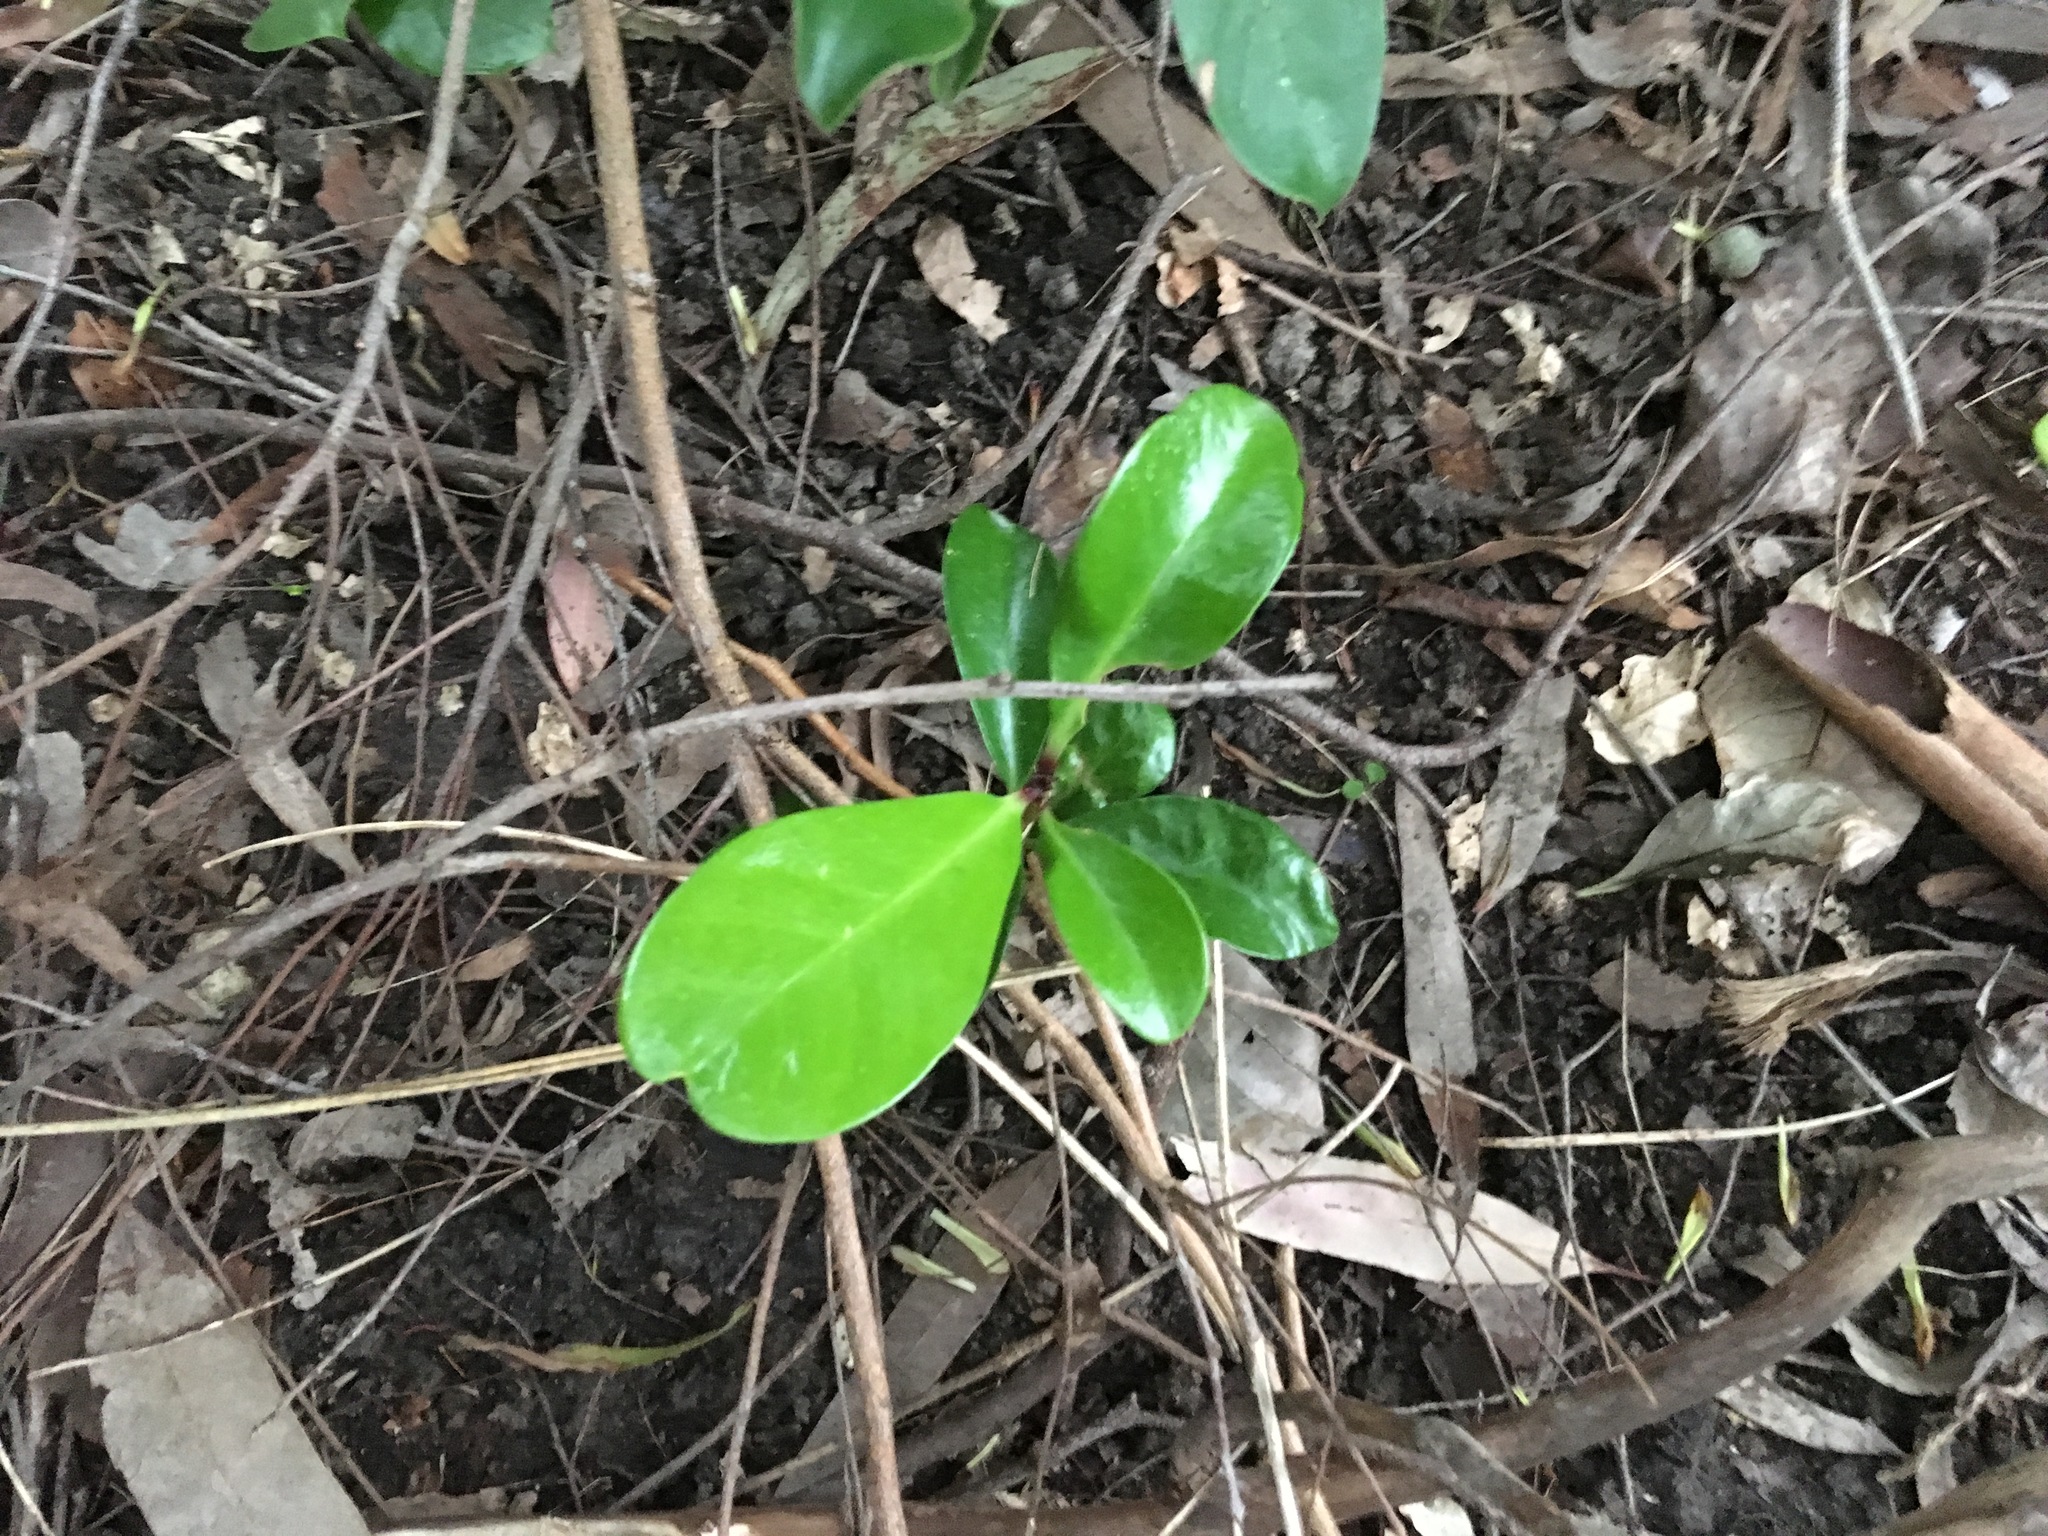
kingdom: Plantae
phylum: Tracheophyta
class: Magnoliopsida
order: Cucurbitales
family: Corynocarpaceae
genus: Corynocarpus
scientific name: Corynocarpus laevigatus
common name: New zealand laurel
